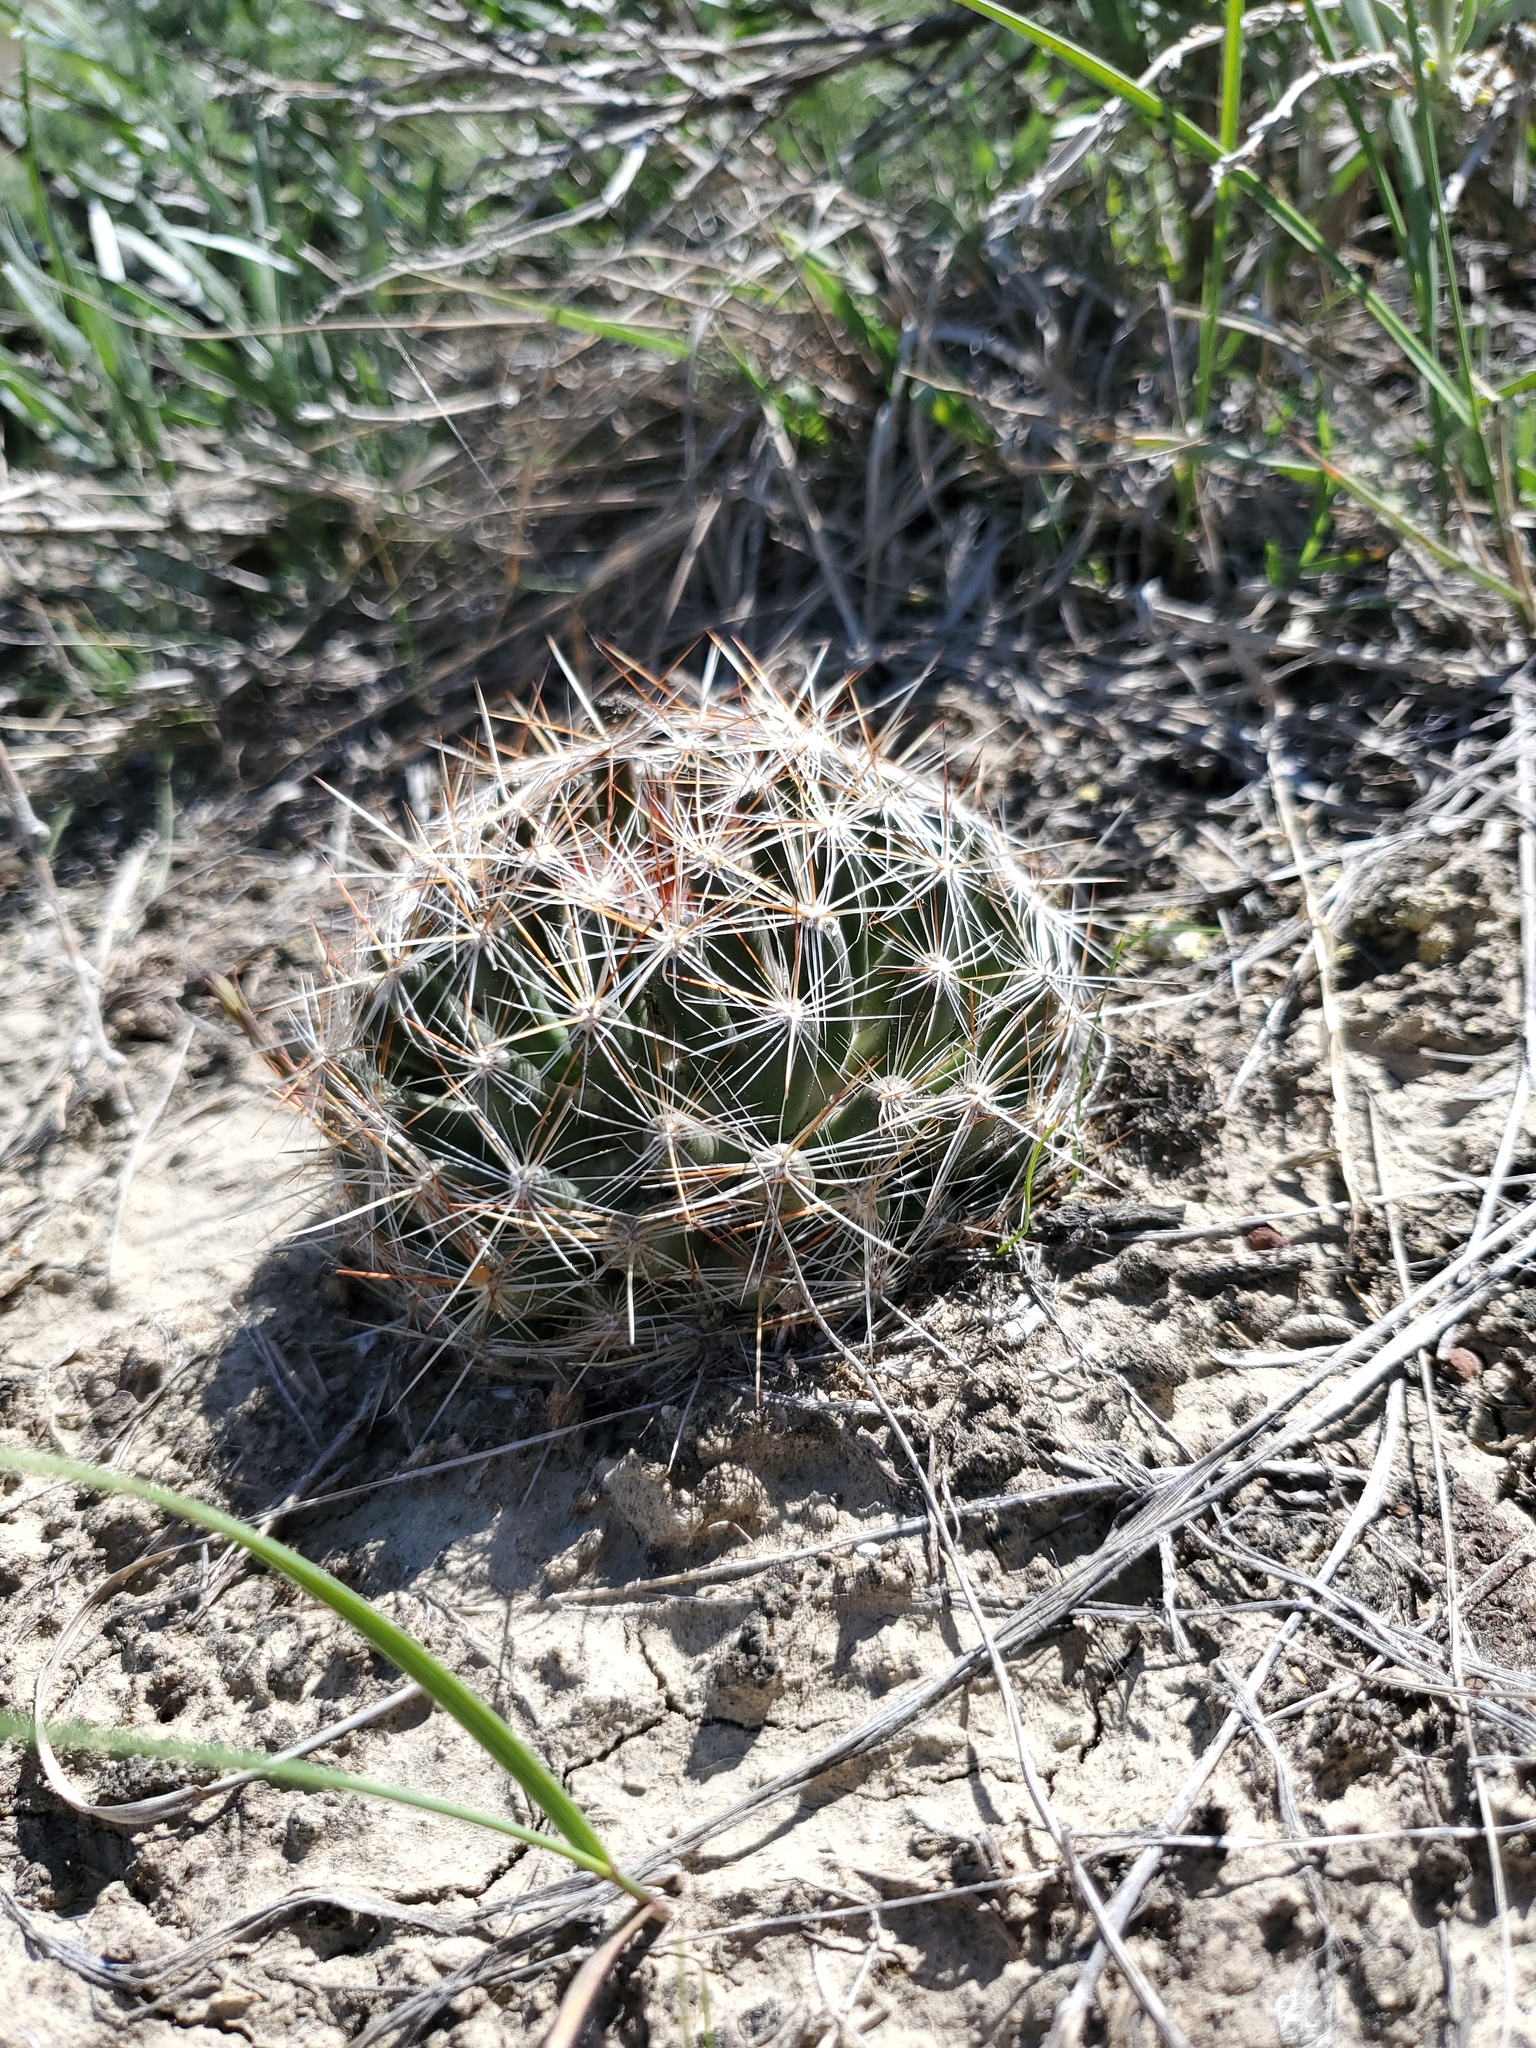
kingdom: Plantae
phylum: Tracheophyta
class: Magnoliopsida
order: Caryophyllales
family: Cactaceae
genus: Pelecyphora
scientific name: Pelecyphora vivipara
